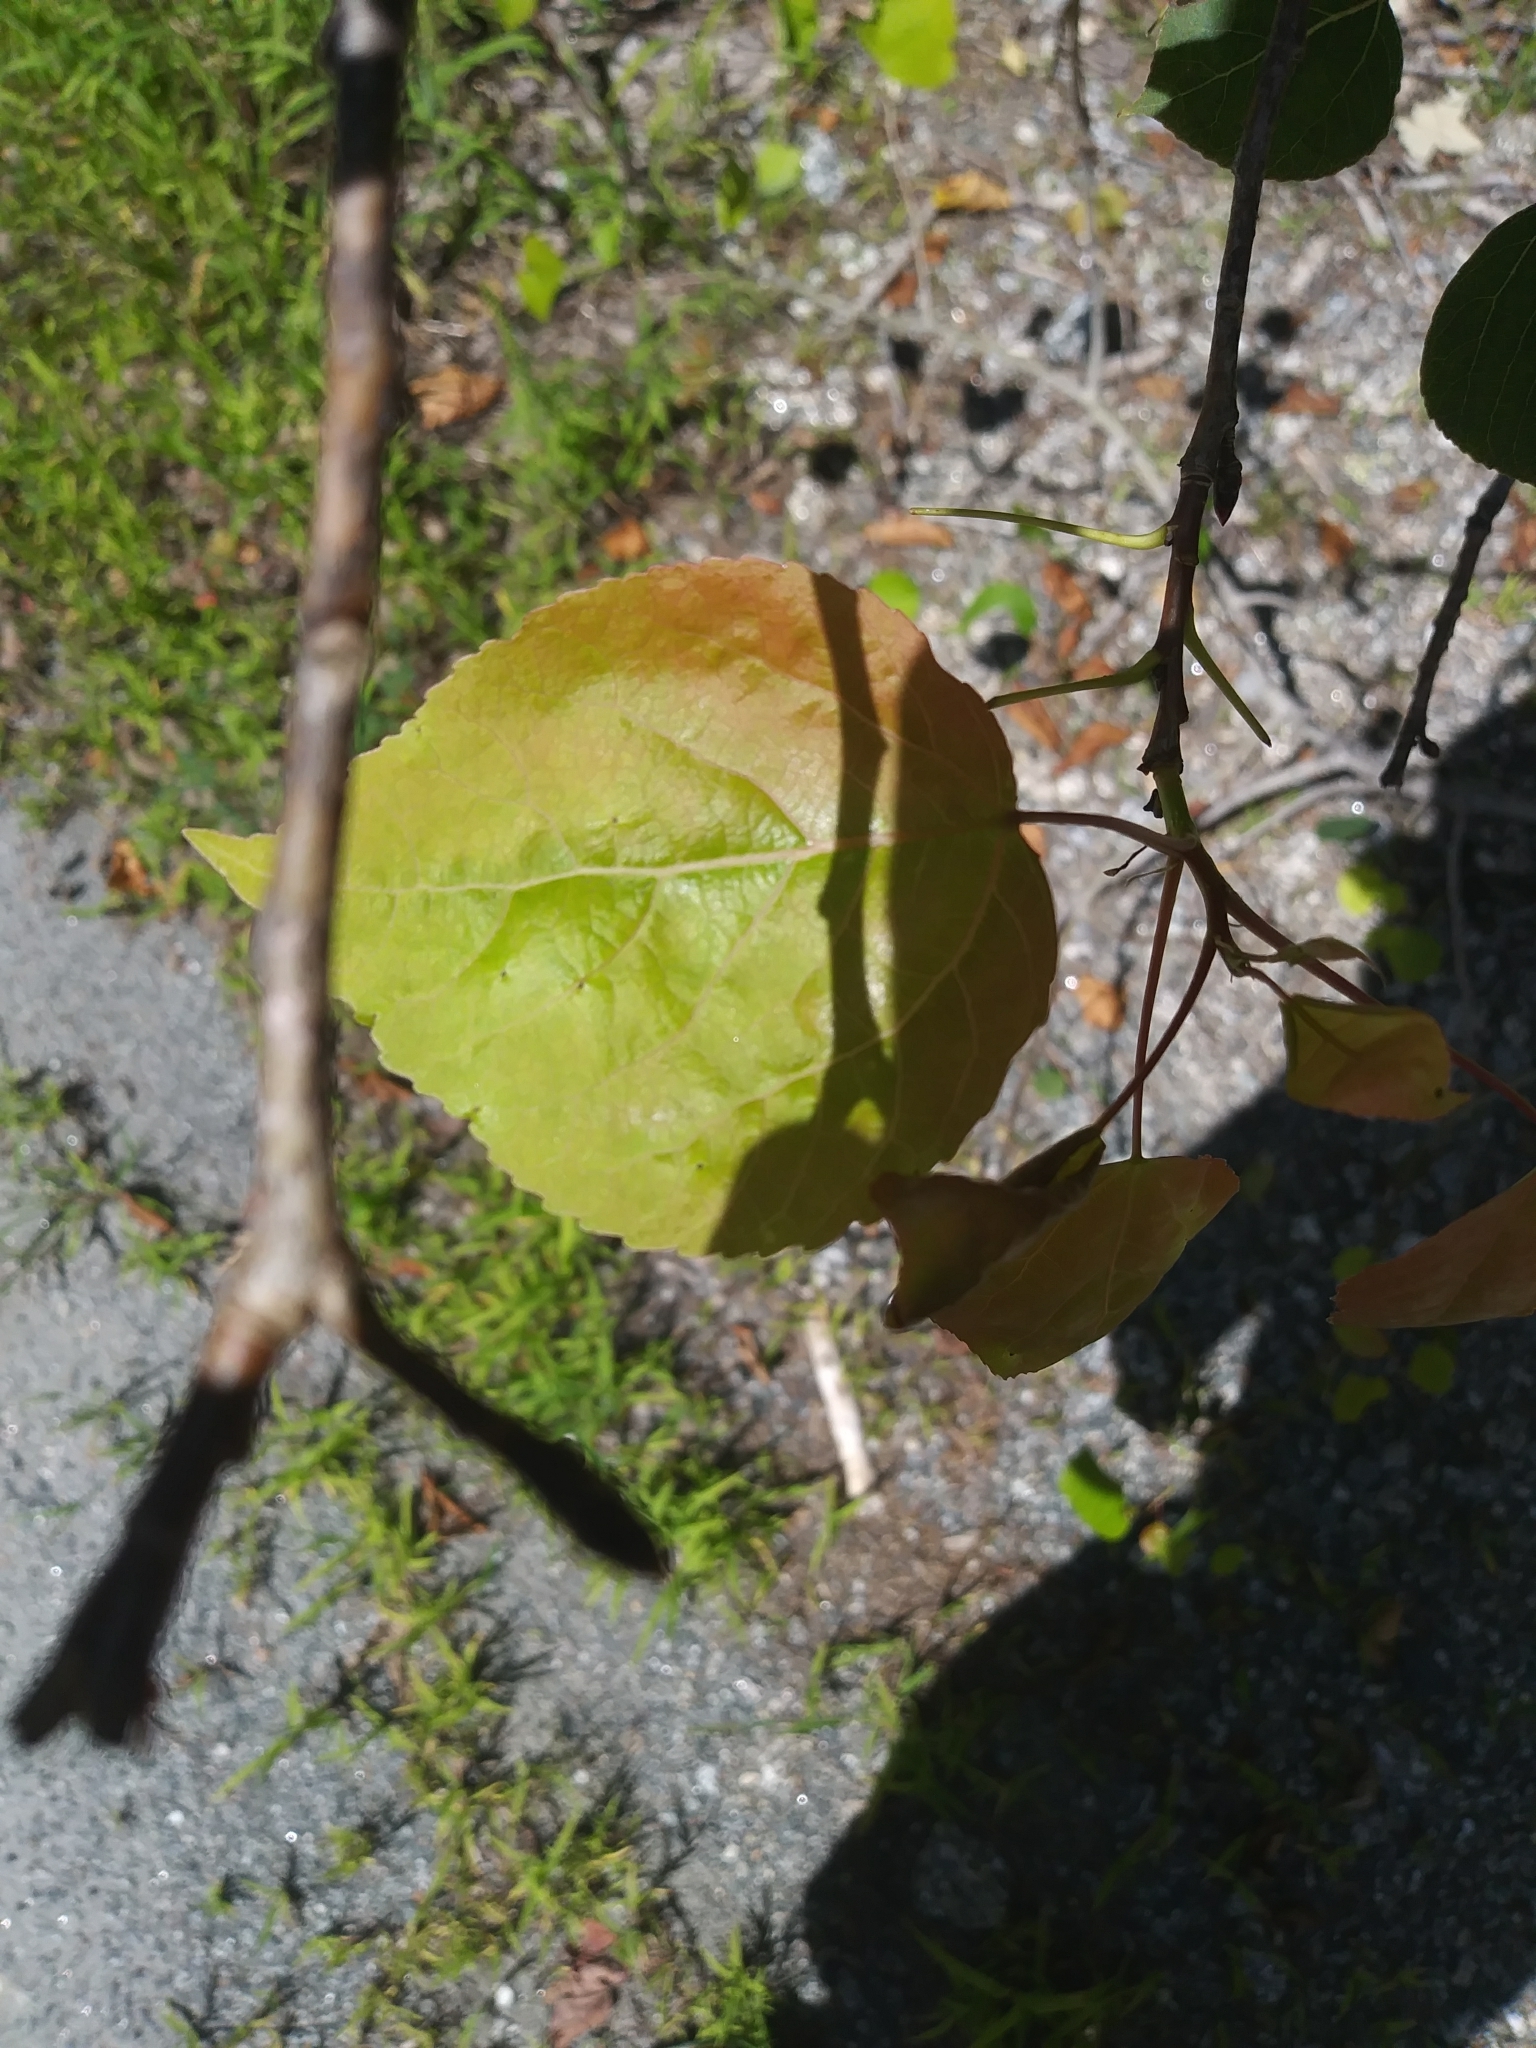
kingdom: Plantae
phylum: Tracheophyta
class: Magnoliopsida
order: Malpighiales
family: Salicaceae
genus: Populus
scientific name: Populus tremuloides
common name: Quaking aspen
